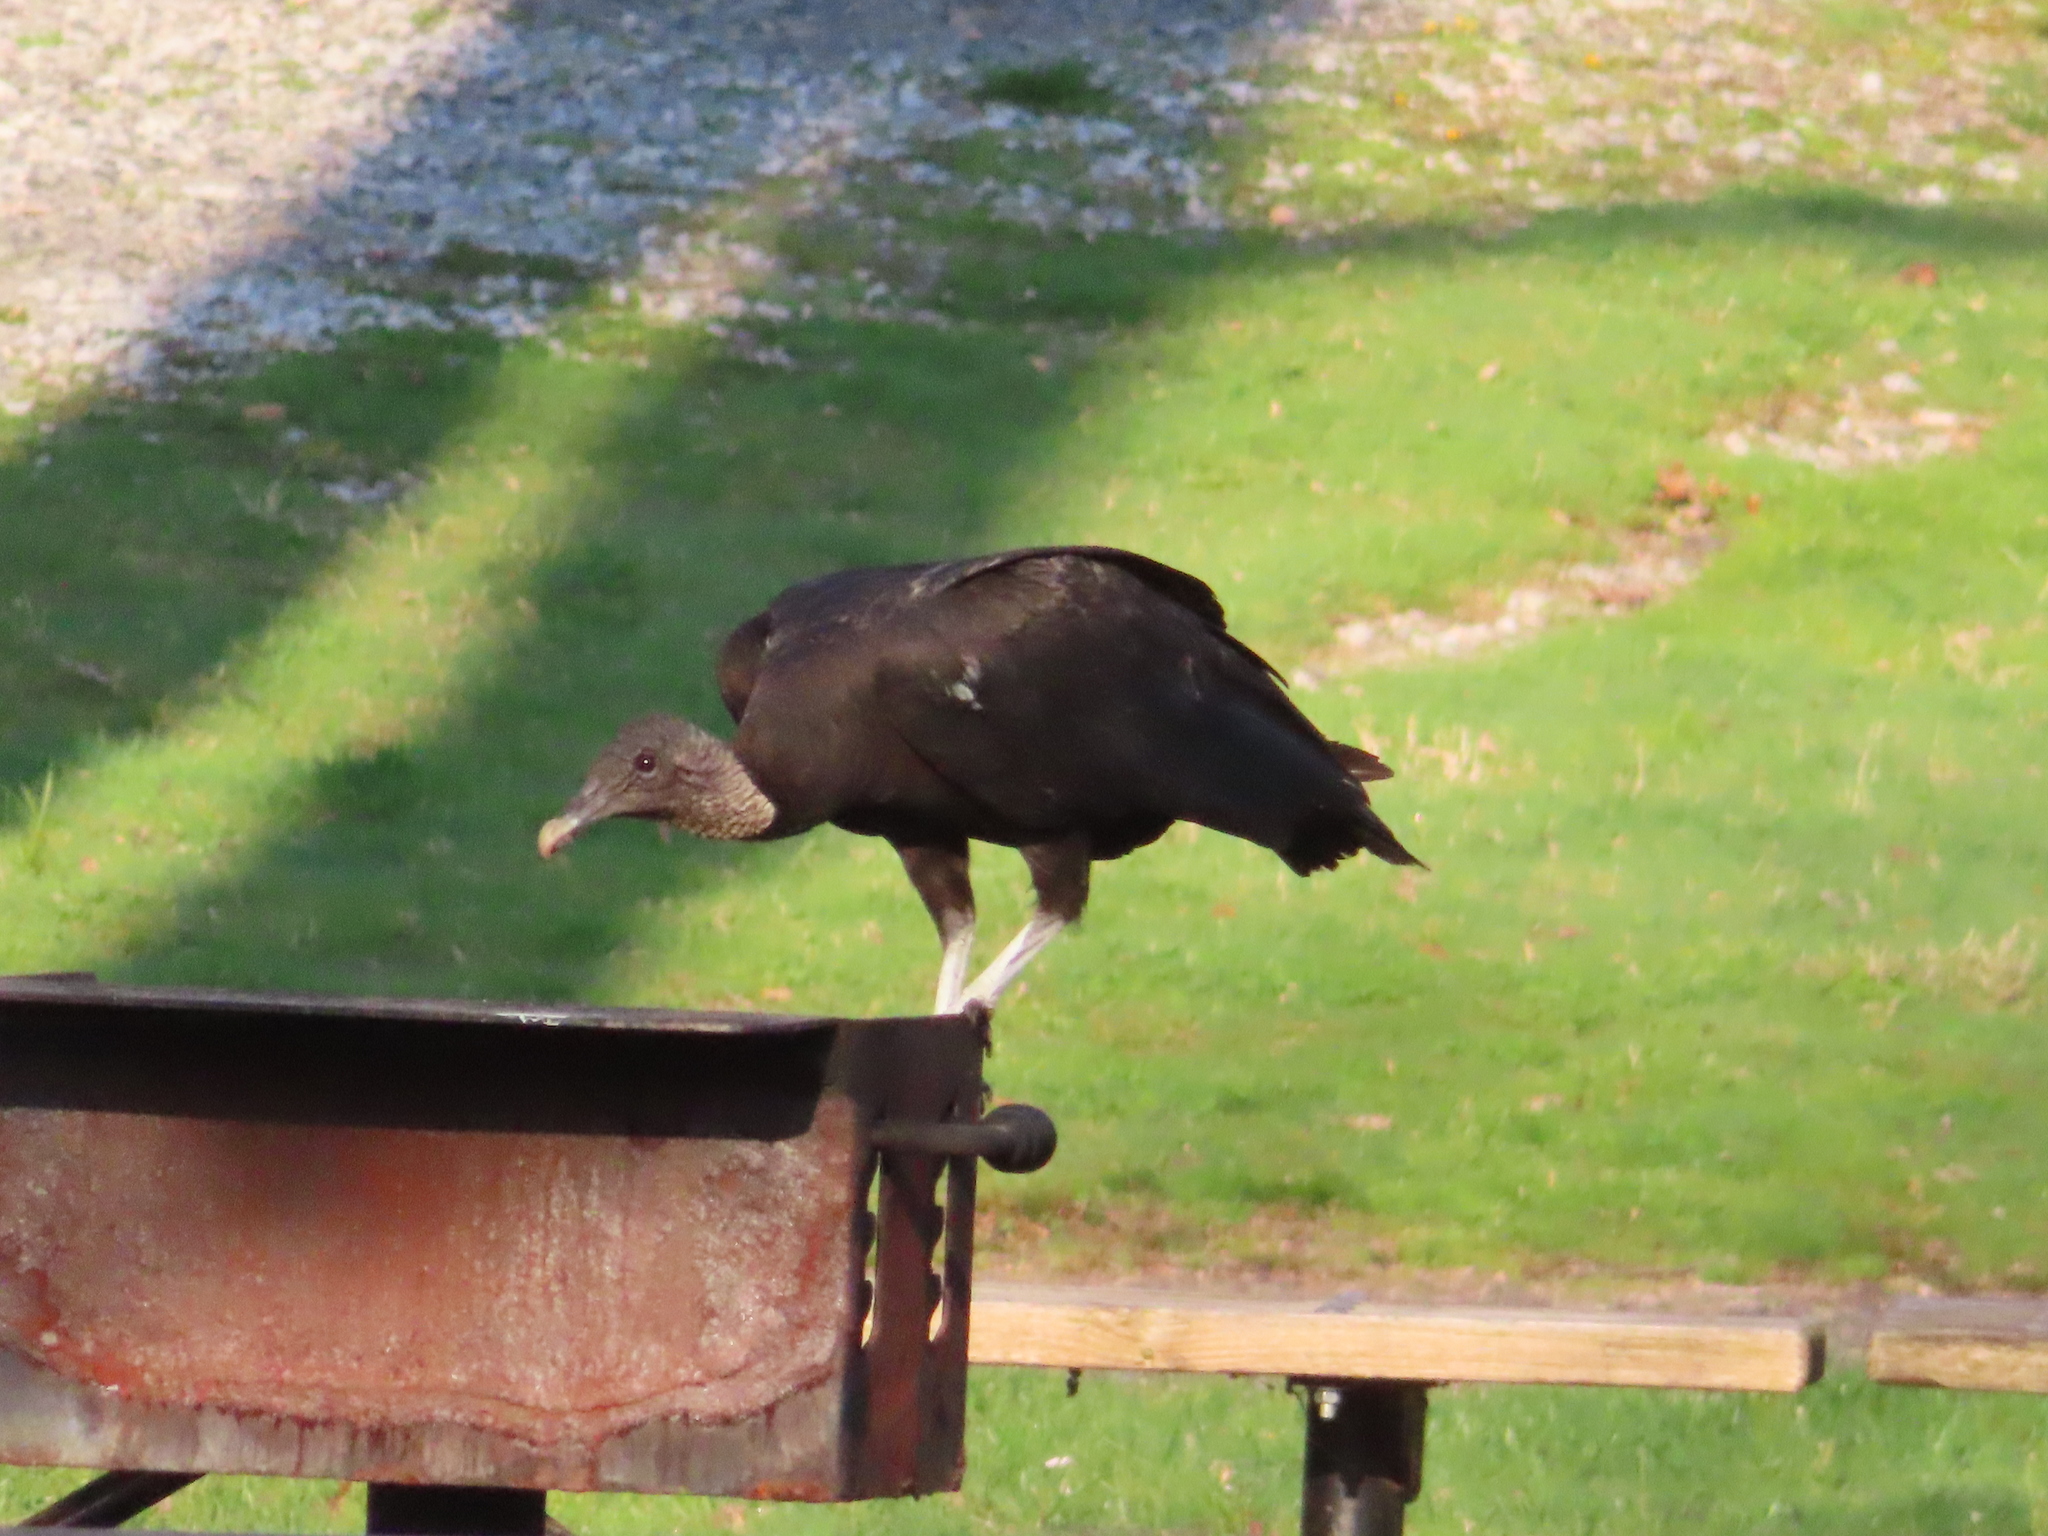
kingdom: Animalia
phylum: Chordata
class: Aves
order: Accipitriformes
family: Cathartidae
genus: Coragyps
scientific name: Coragyps atratus
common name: Black vulture
